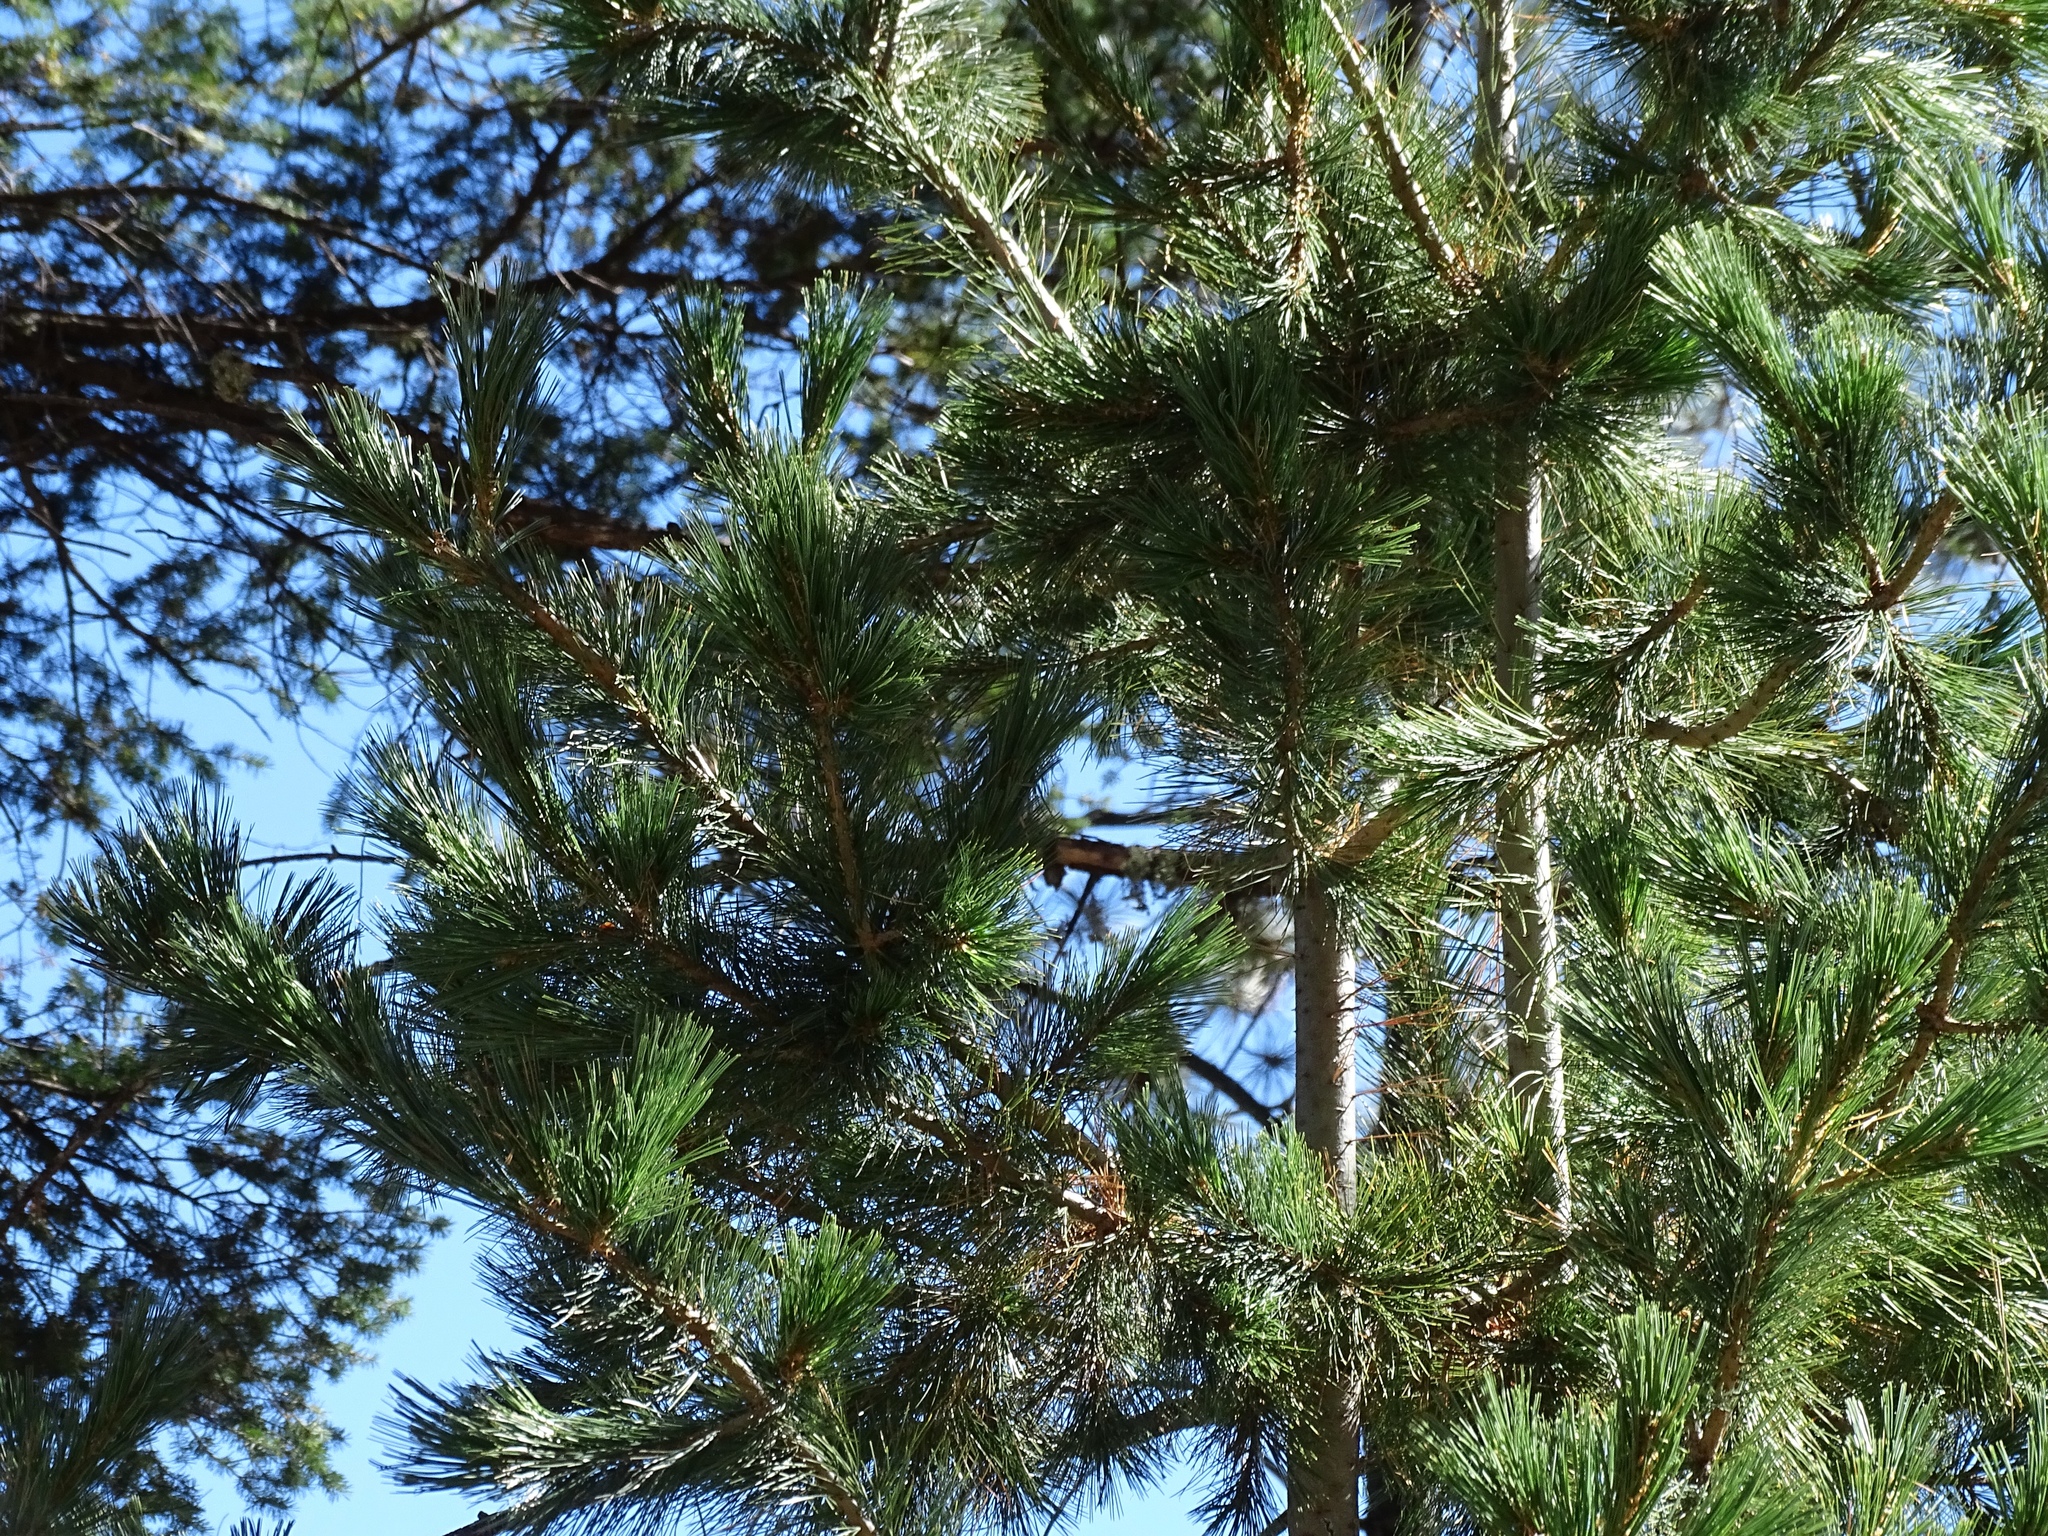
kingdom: Plantae
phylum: Tracheophyta
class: Pinopsida
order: Pinales
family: Pinaceae
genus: Pinus
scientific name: Pinus strobiformis
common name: Southwestern white pine
